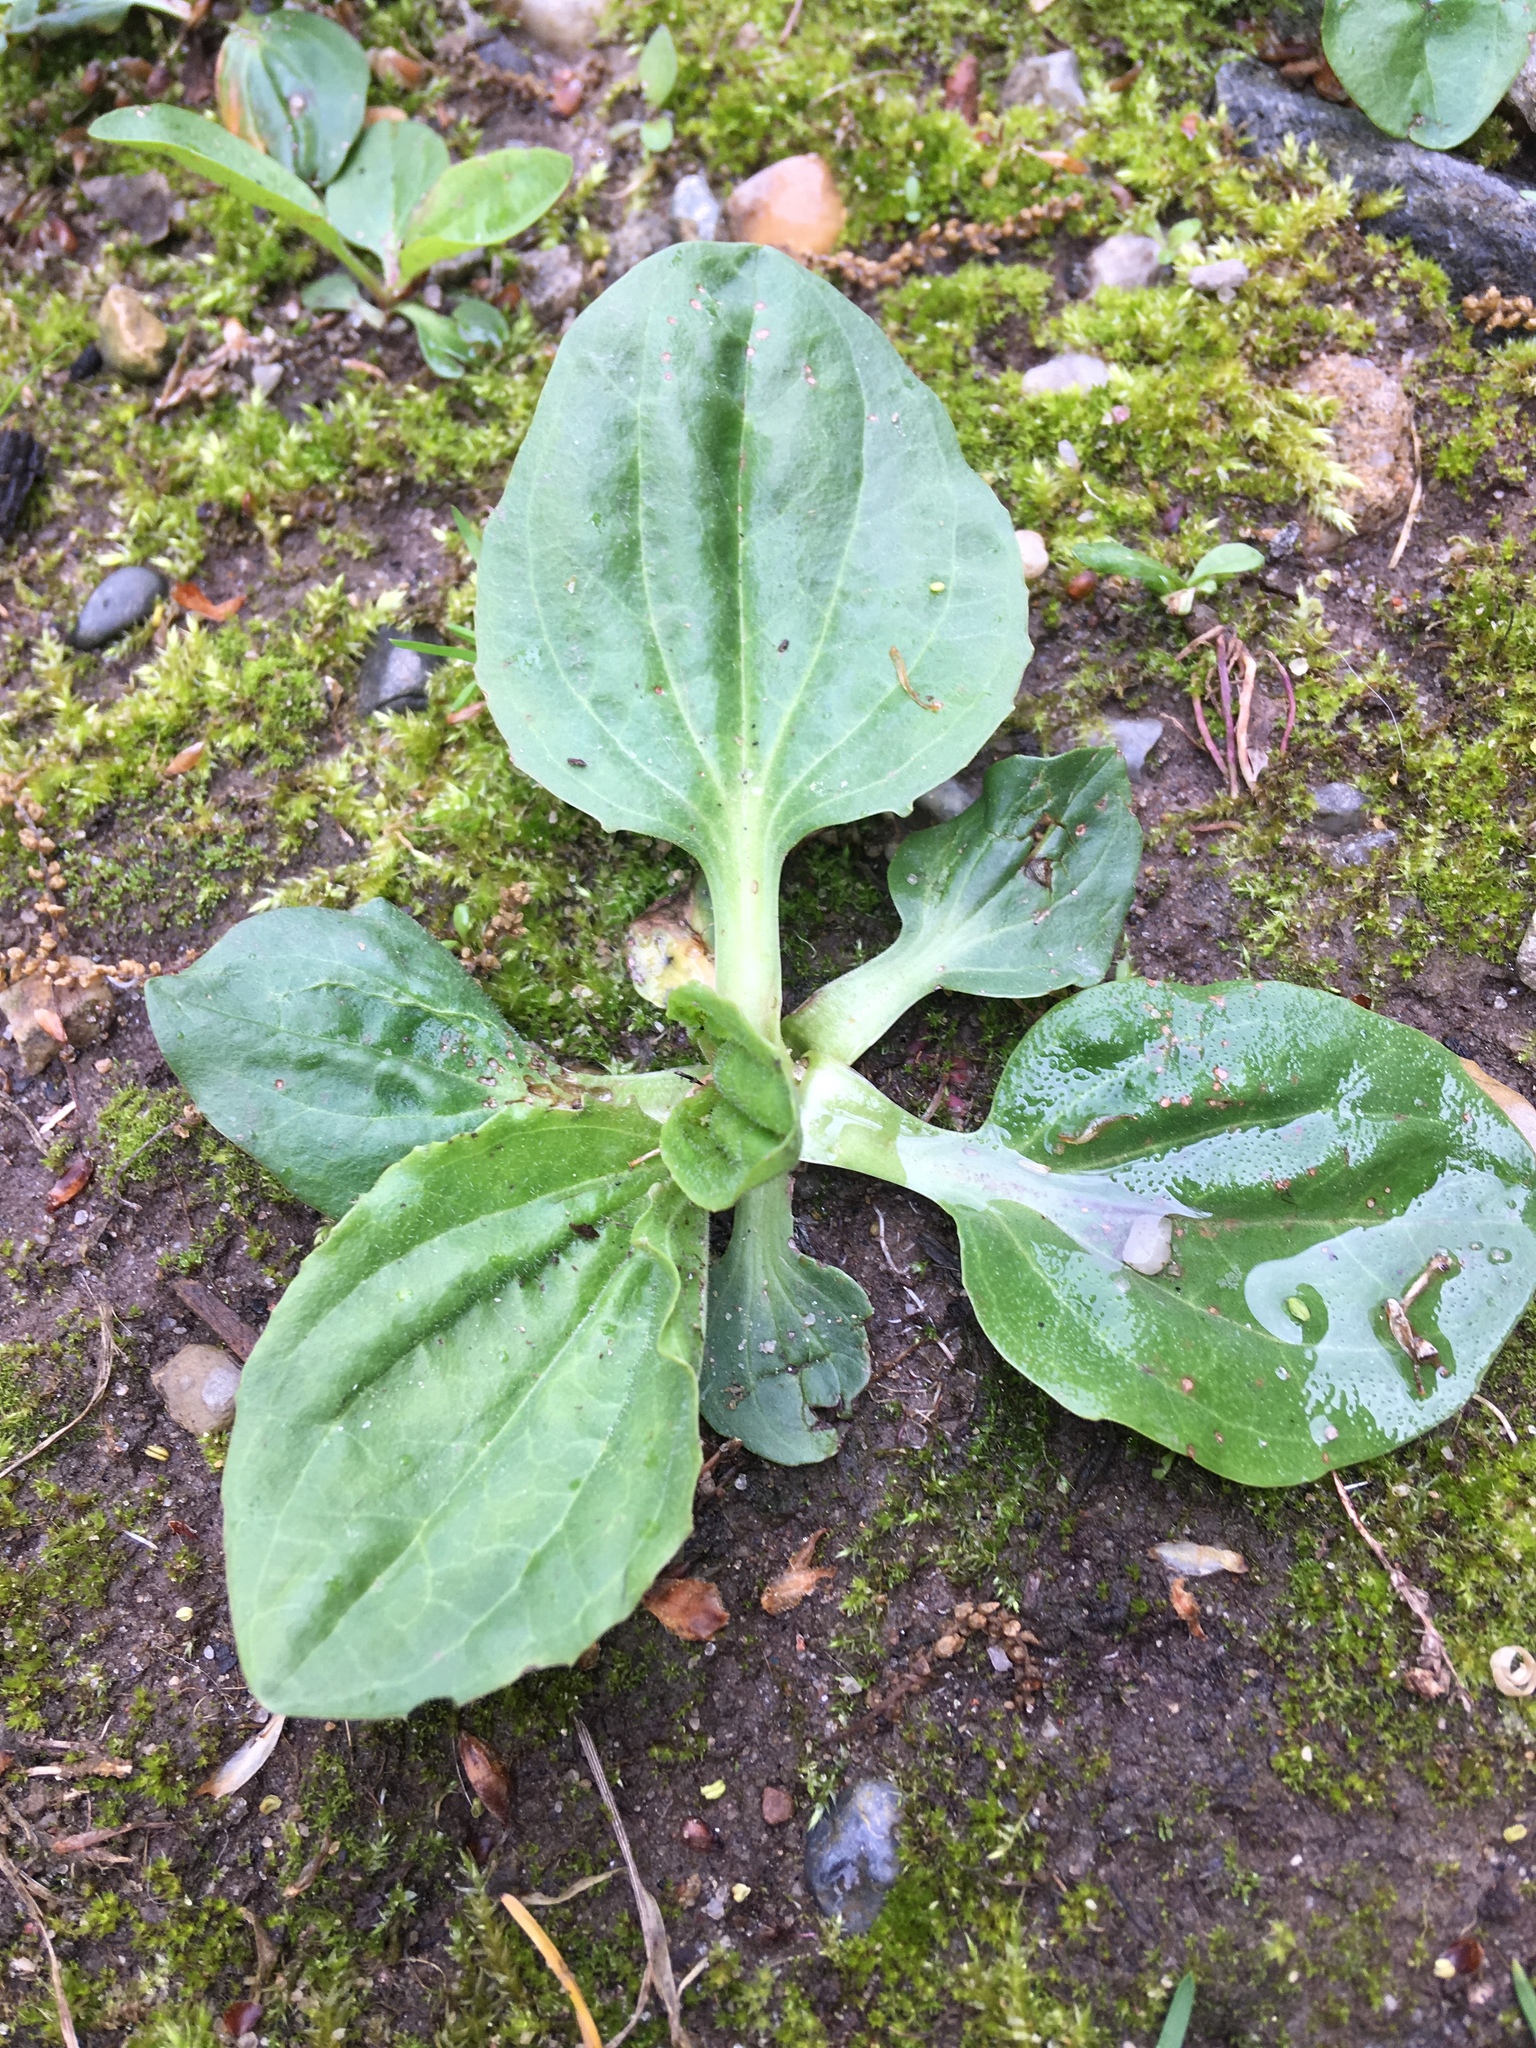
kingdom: Plantae
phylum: Tracheophyta
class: Magnoliopsida
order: Lamiales
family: Plantaginaceae
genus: Plantago
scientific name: Plantago major
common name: Common plantain
